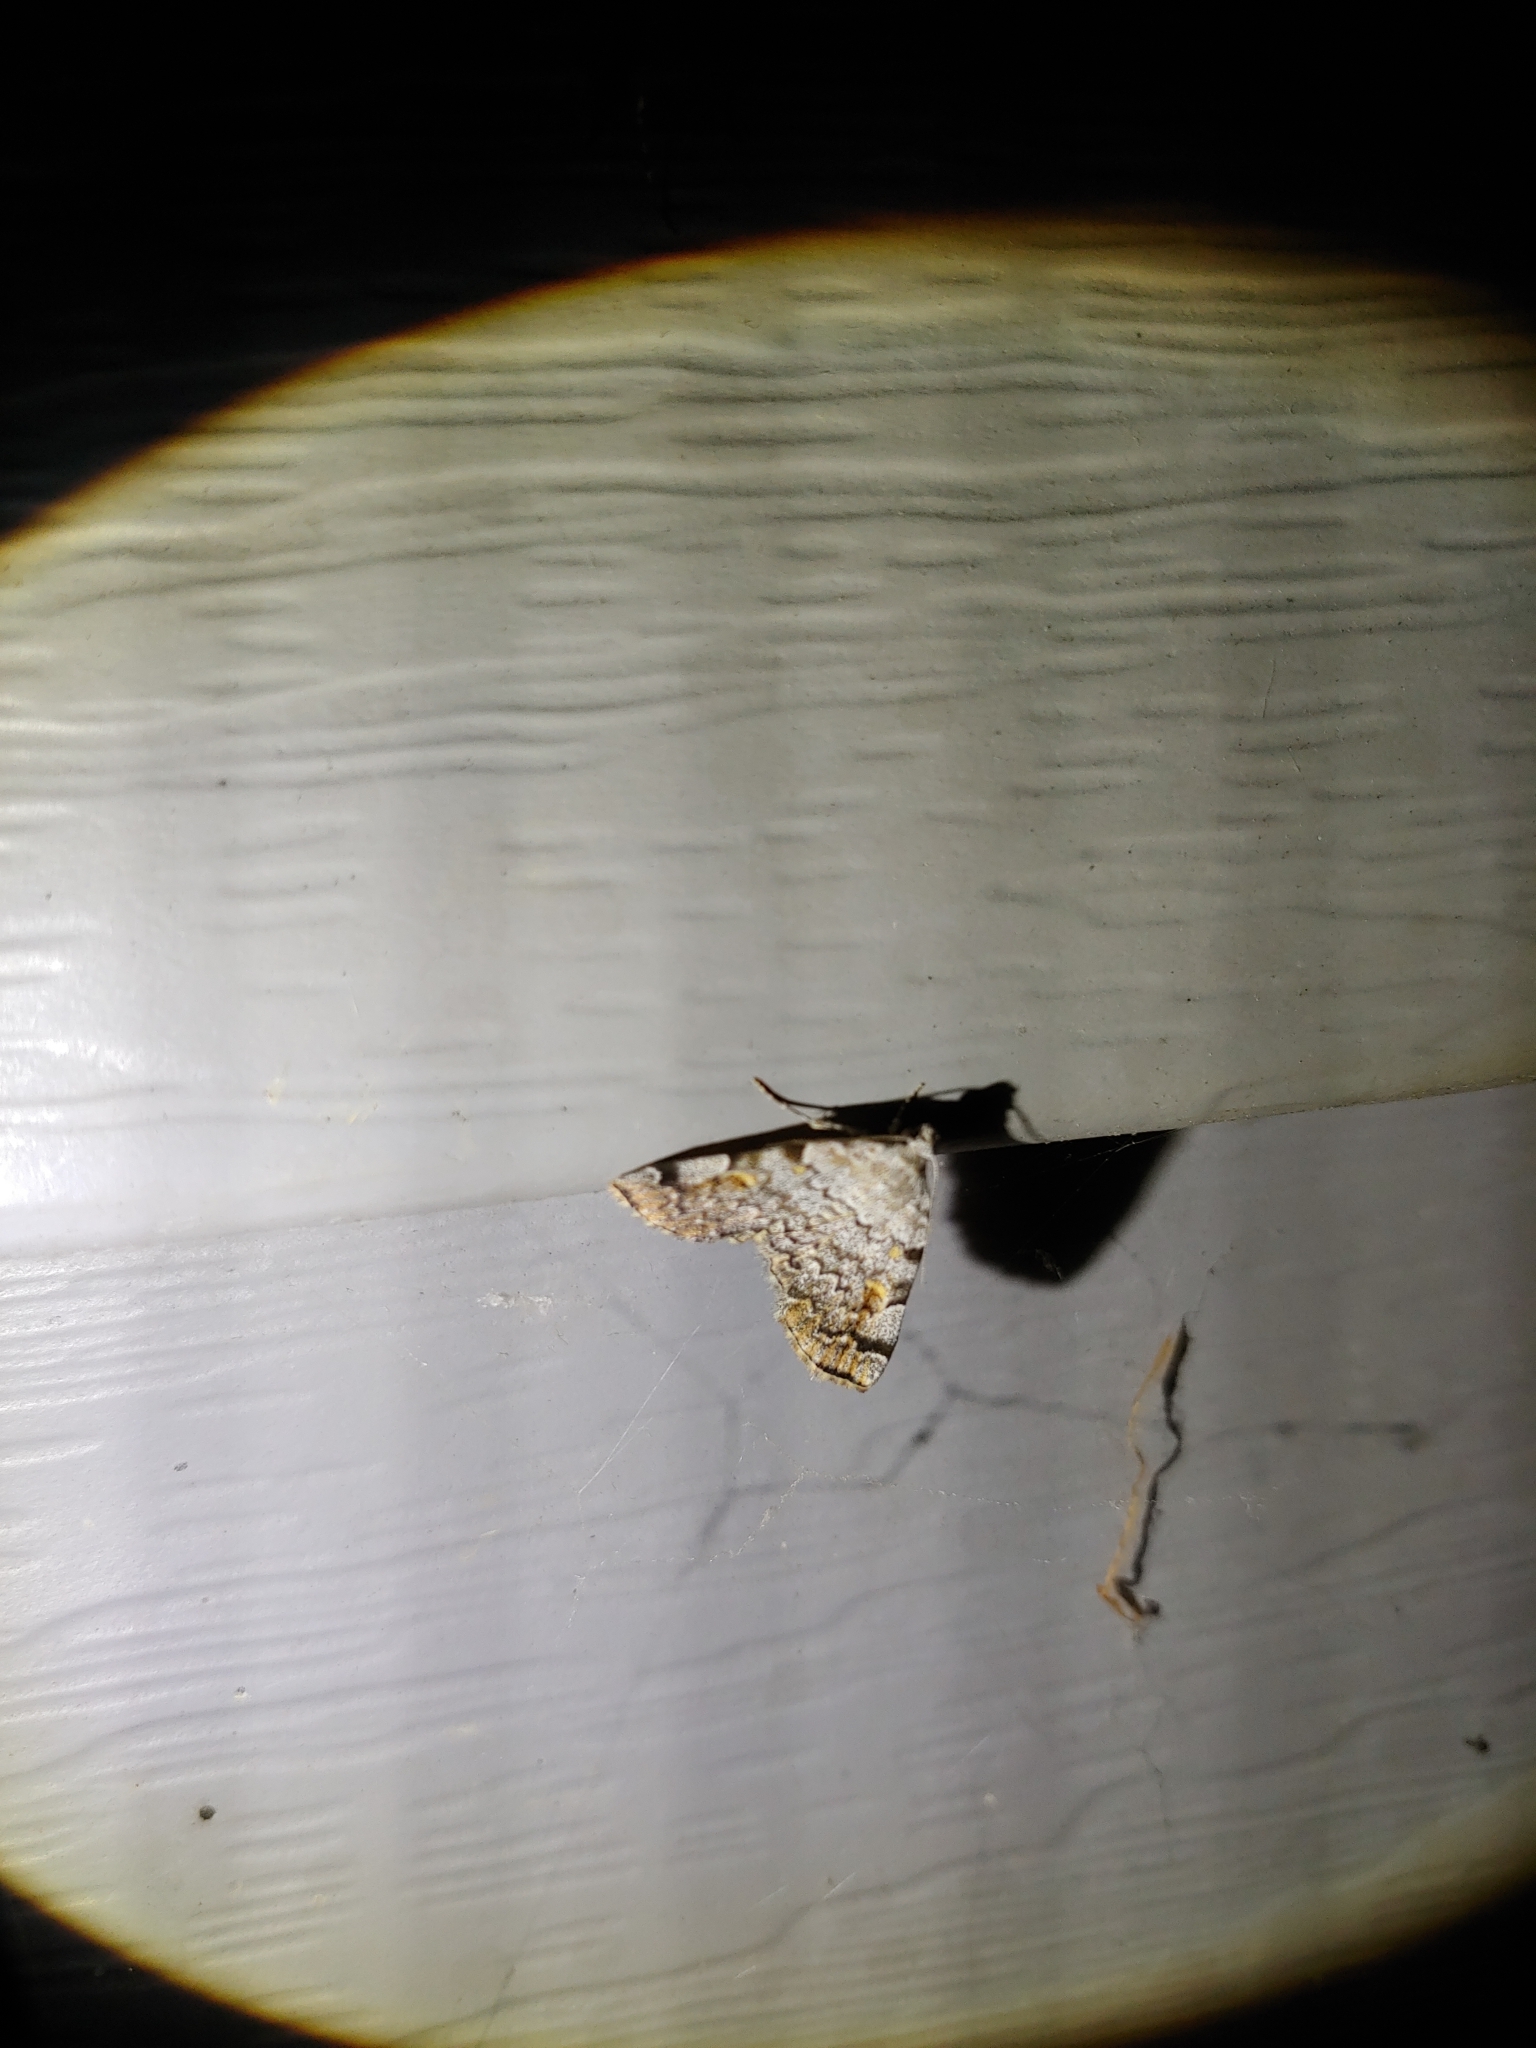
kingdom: Animalia
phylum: Arthropoda
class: Insecta
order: Lepidoptera
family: Erebidae
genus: Idia
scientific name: Idia americalis
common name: American idia moth
